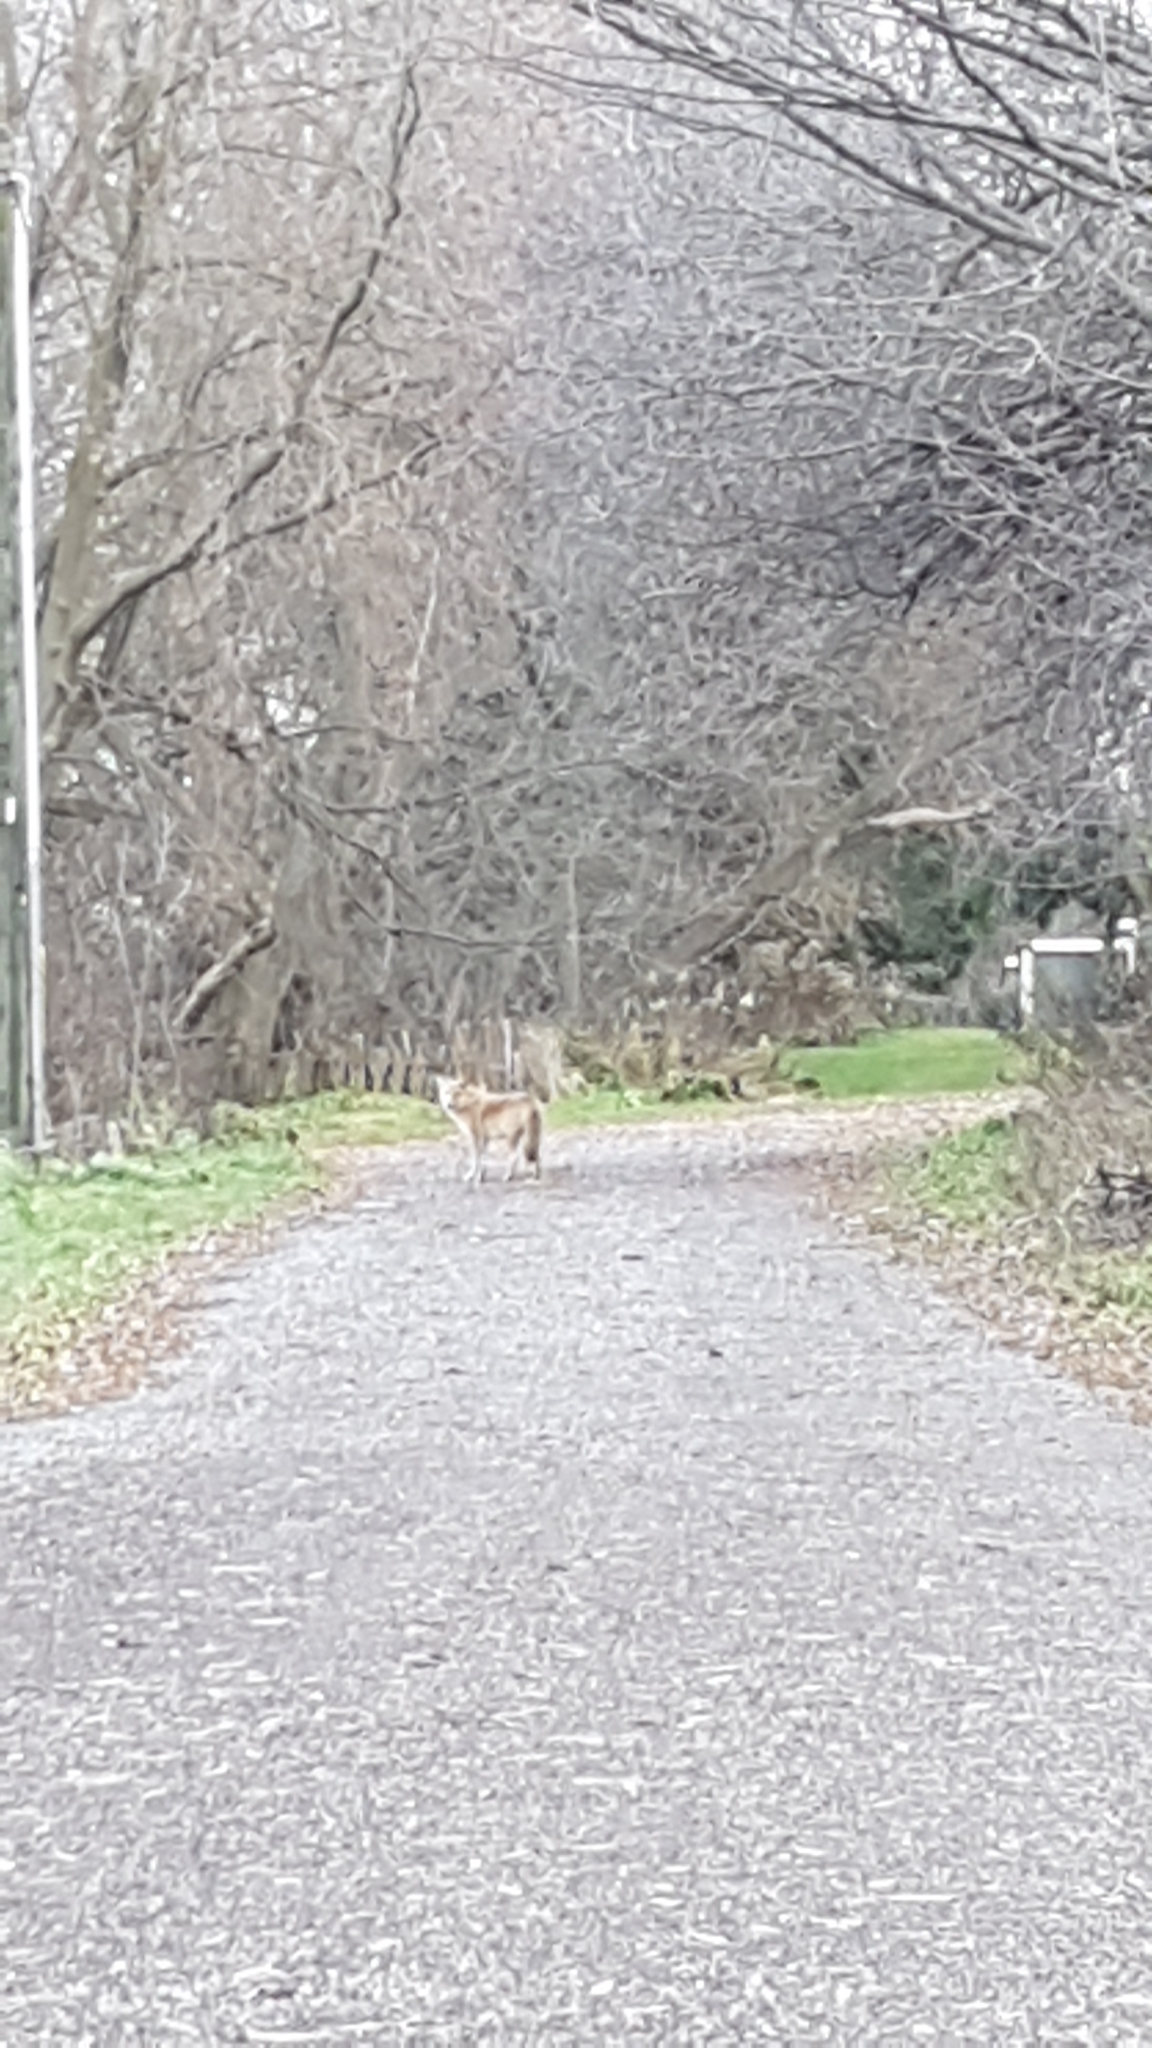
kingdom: Animalia
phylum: Chordata
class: Mammalia
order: Carnivora
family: Canidae
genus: Canis
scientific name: Canis latrans
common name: Coyote
